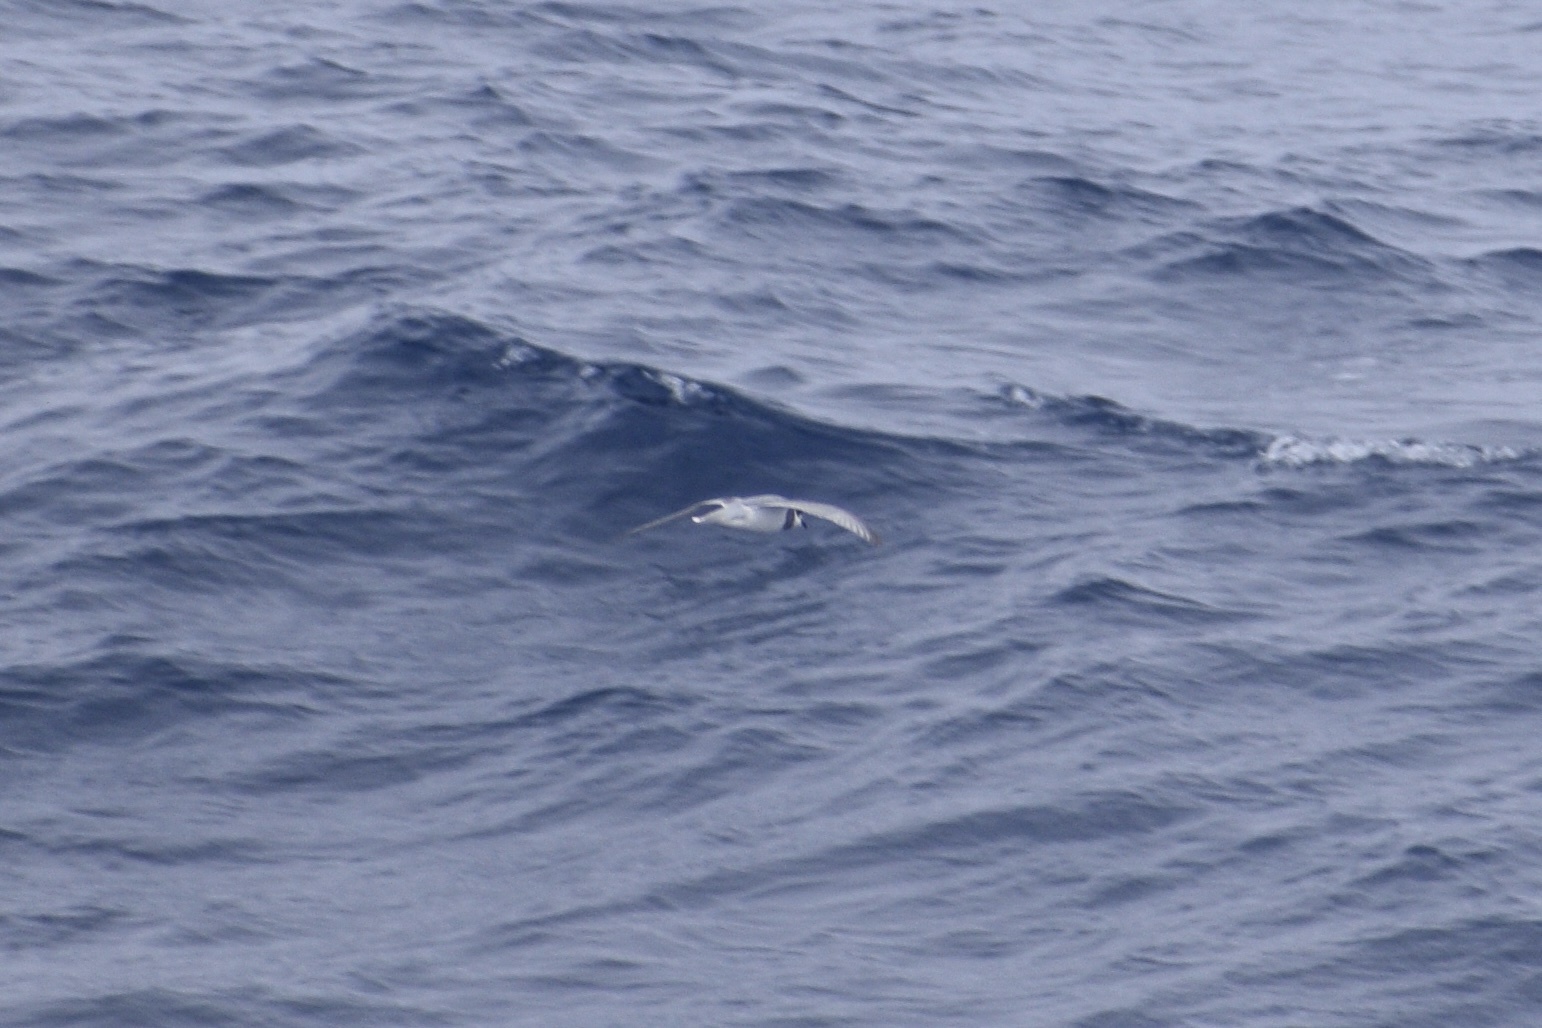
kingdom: Animalia
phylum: Chordata
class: Aves
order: Procellariiformes
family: Procellariidae
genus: Halobaena
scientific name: Halobaena caerulea
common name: Blue petrel
